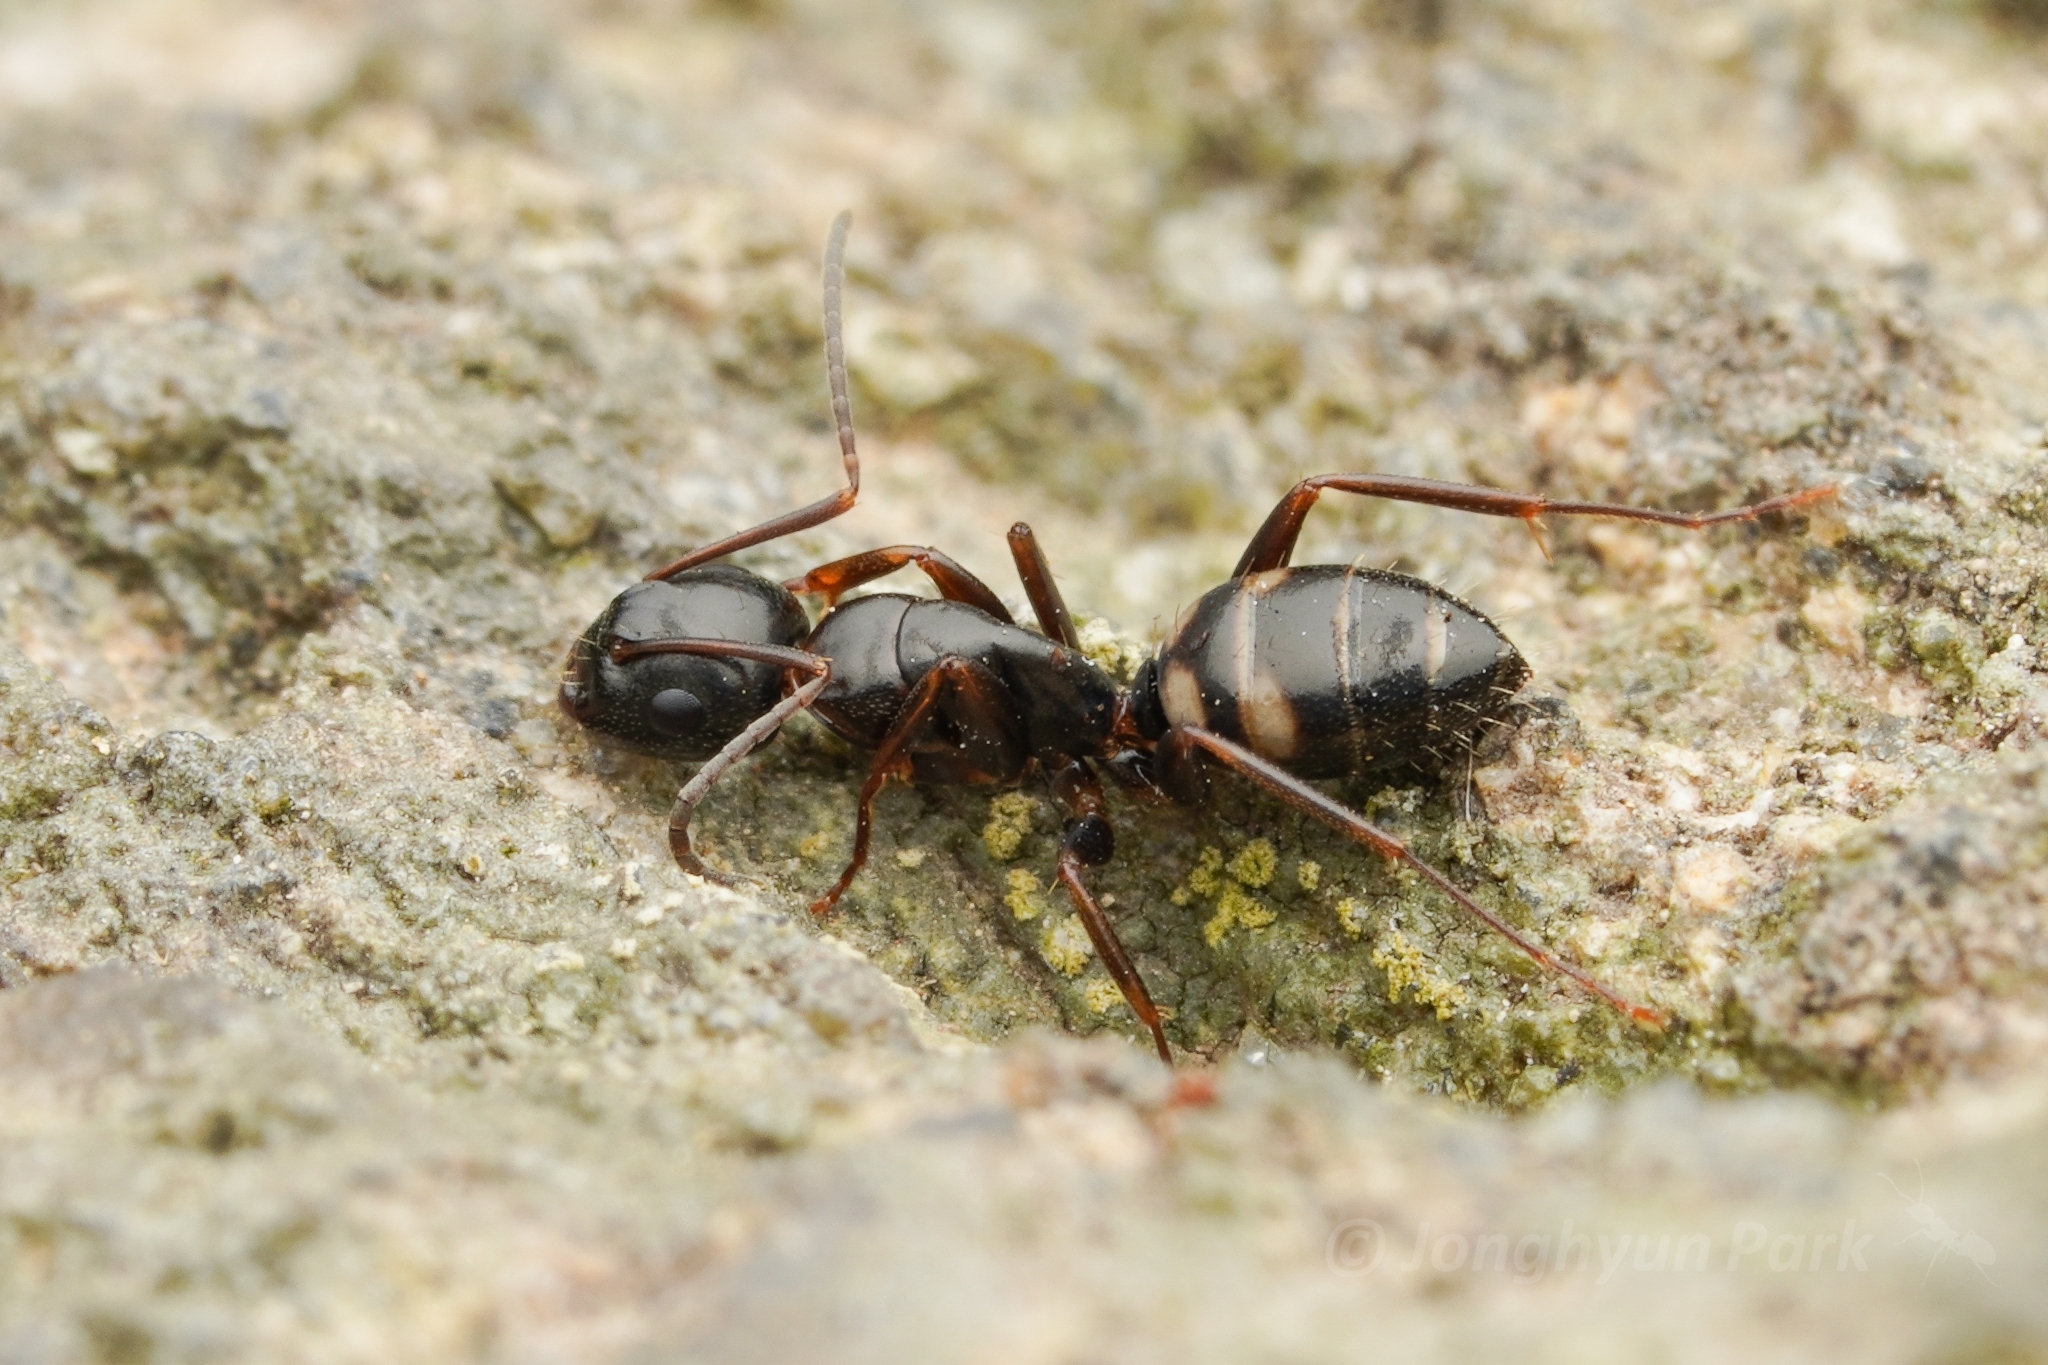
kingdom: Animalia
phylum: Arthropoda
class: Insecta
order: Hymenoptera
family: Formicidae
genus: Camponotus
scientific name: Camponotus quadrinotatus
